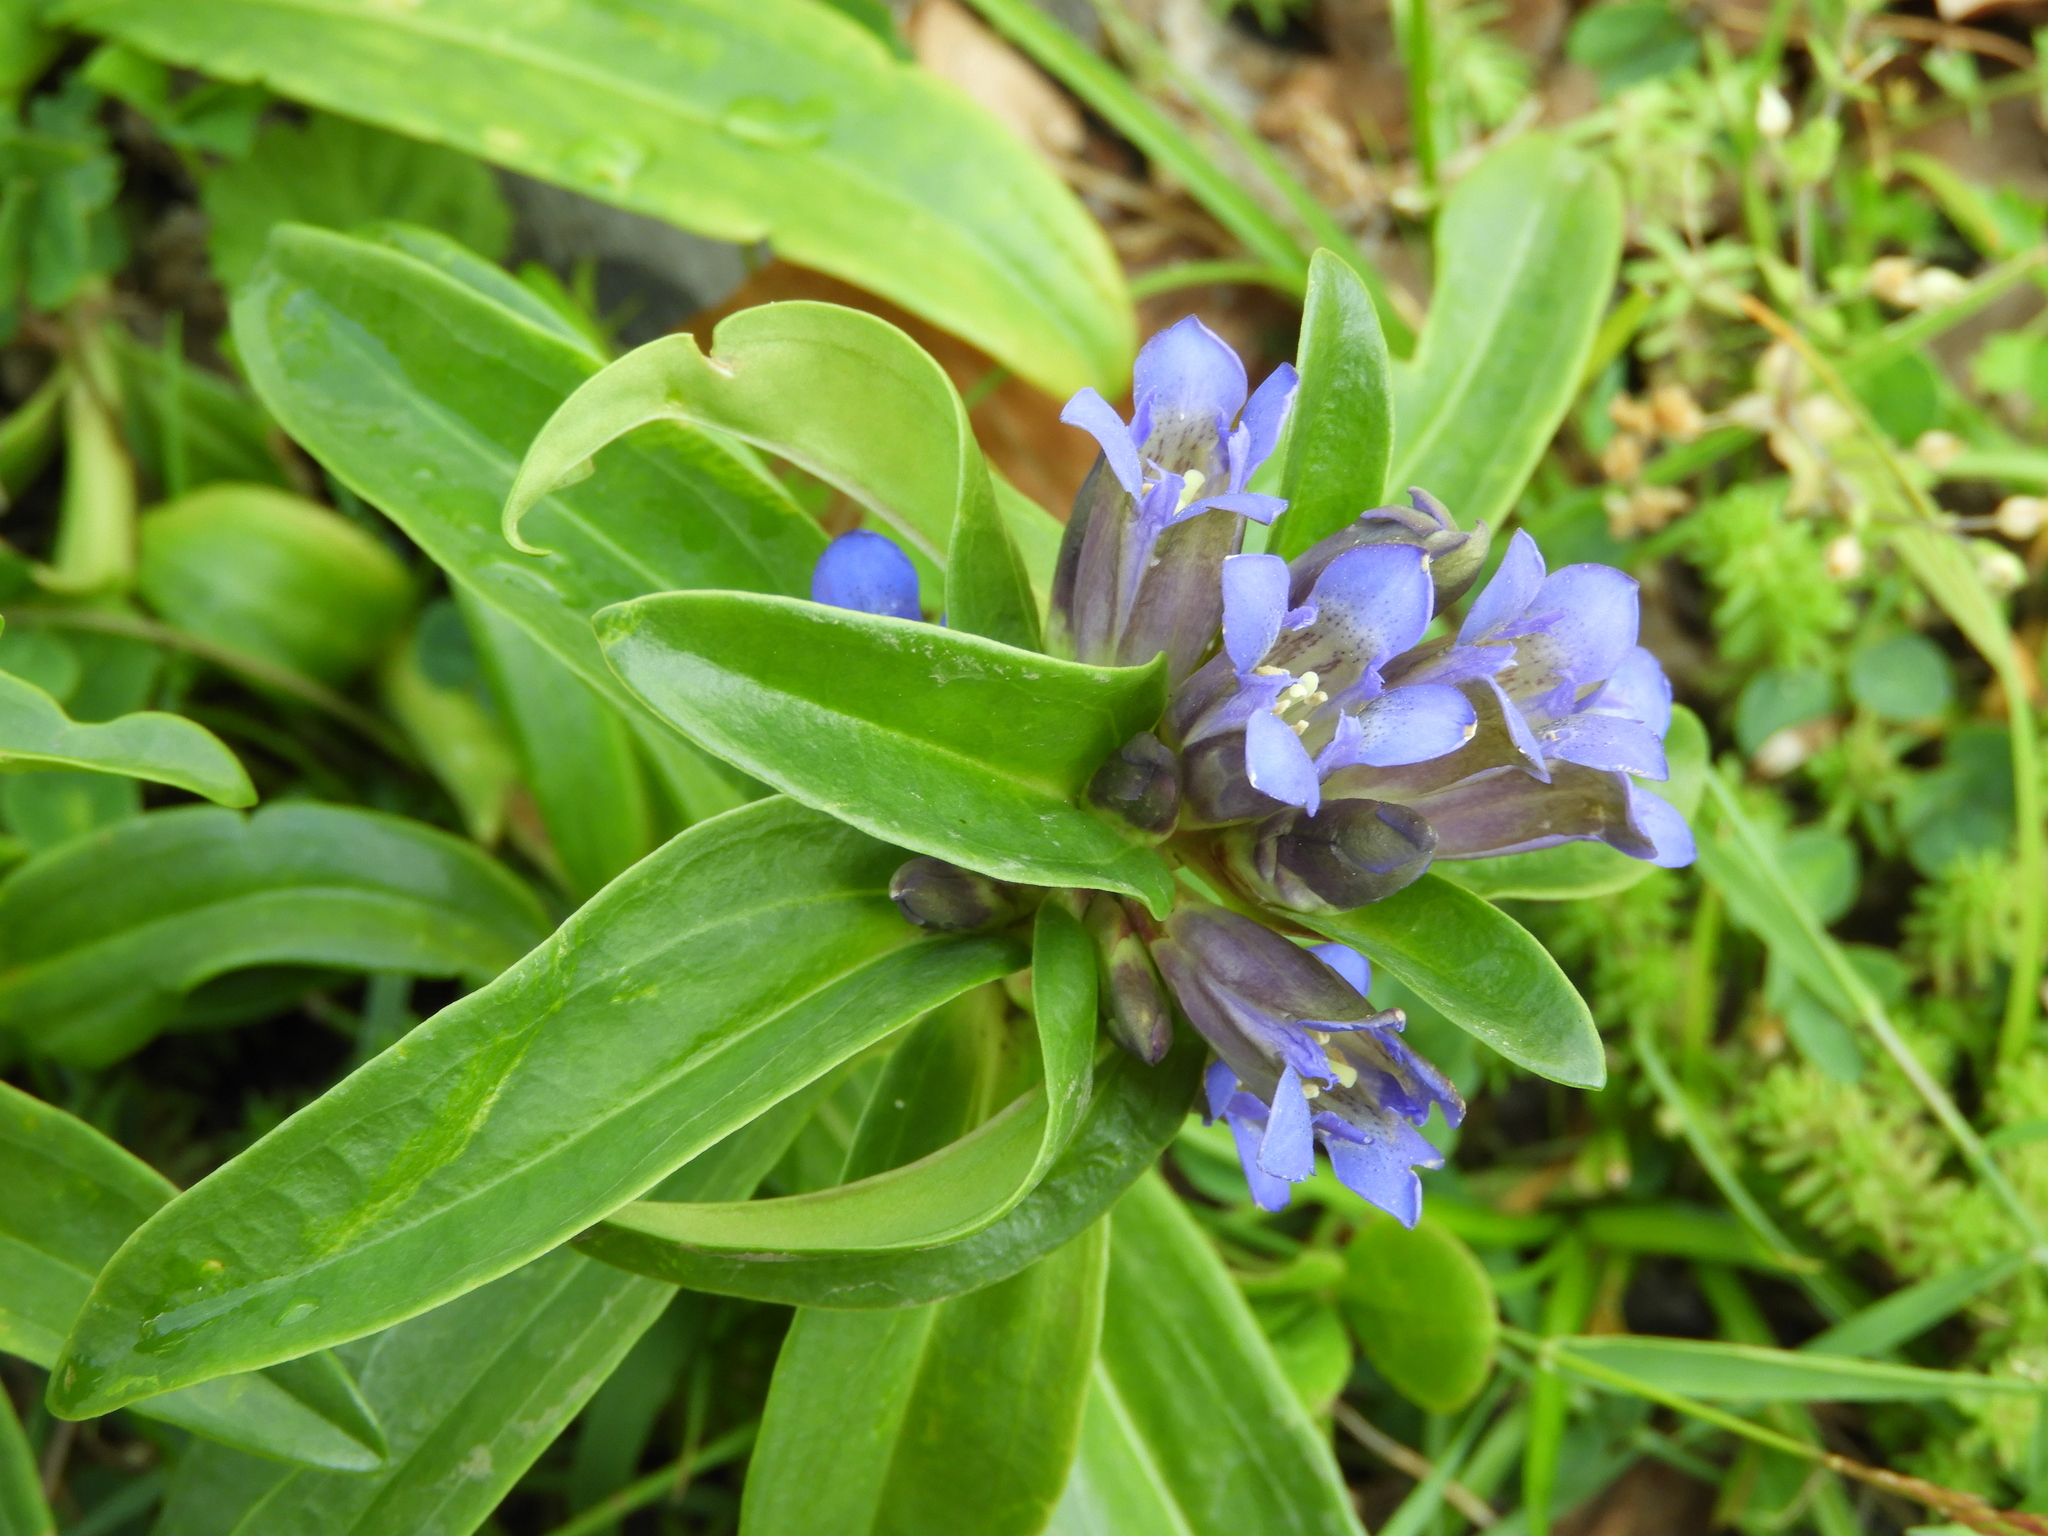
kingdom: Plantae
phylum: Tracheophyta
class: Magnoliopsida
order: Gentianales
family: Gentianaceae
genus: Gentiana
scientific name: Gentiana cruciata
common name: Cross gentian
